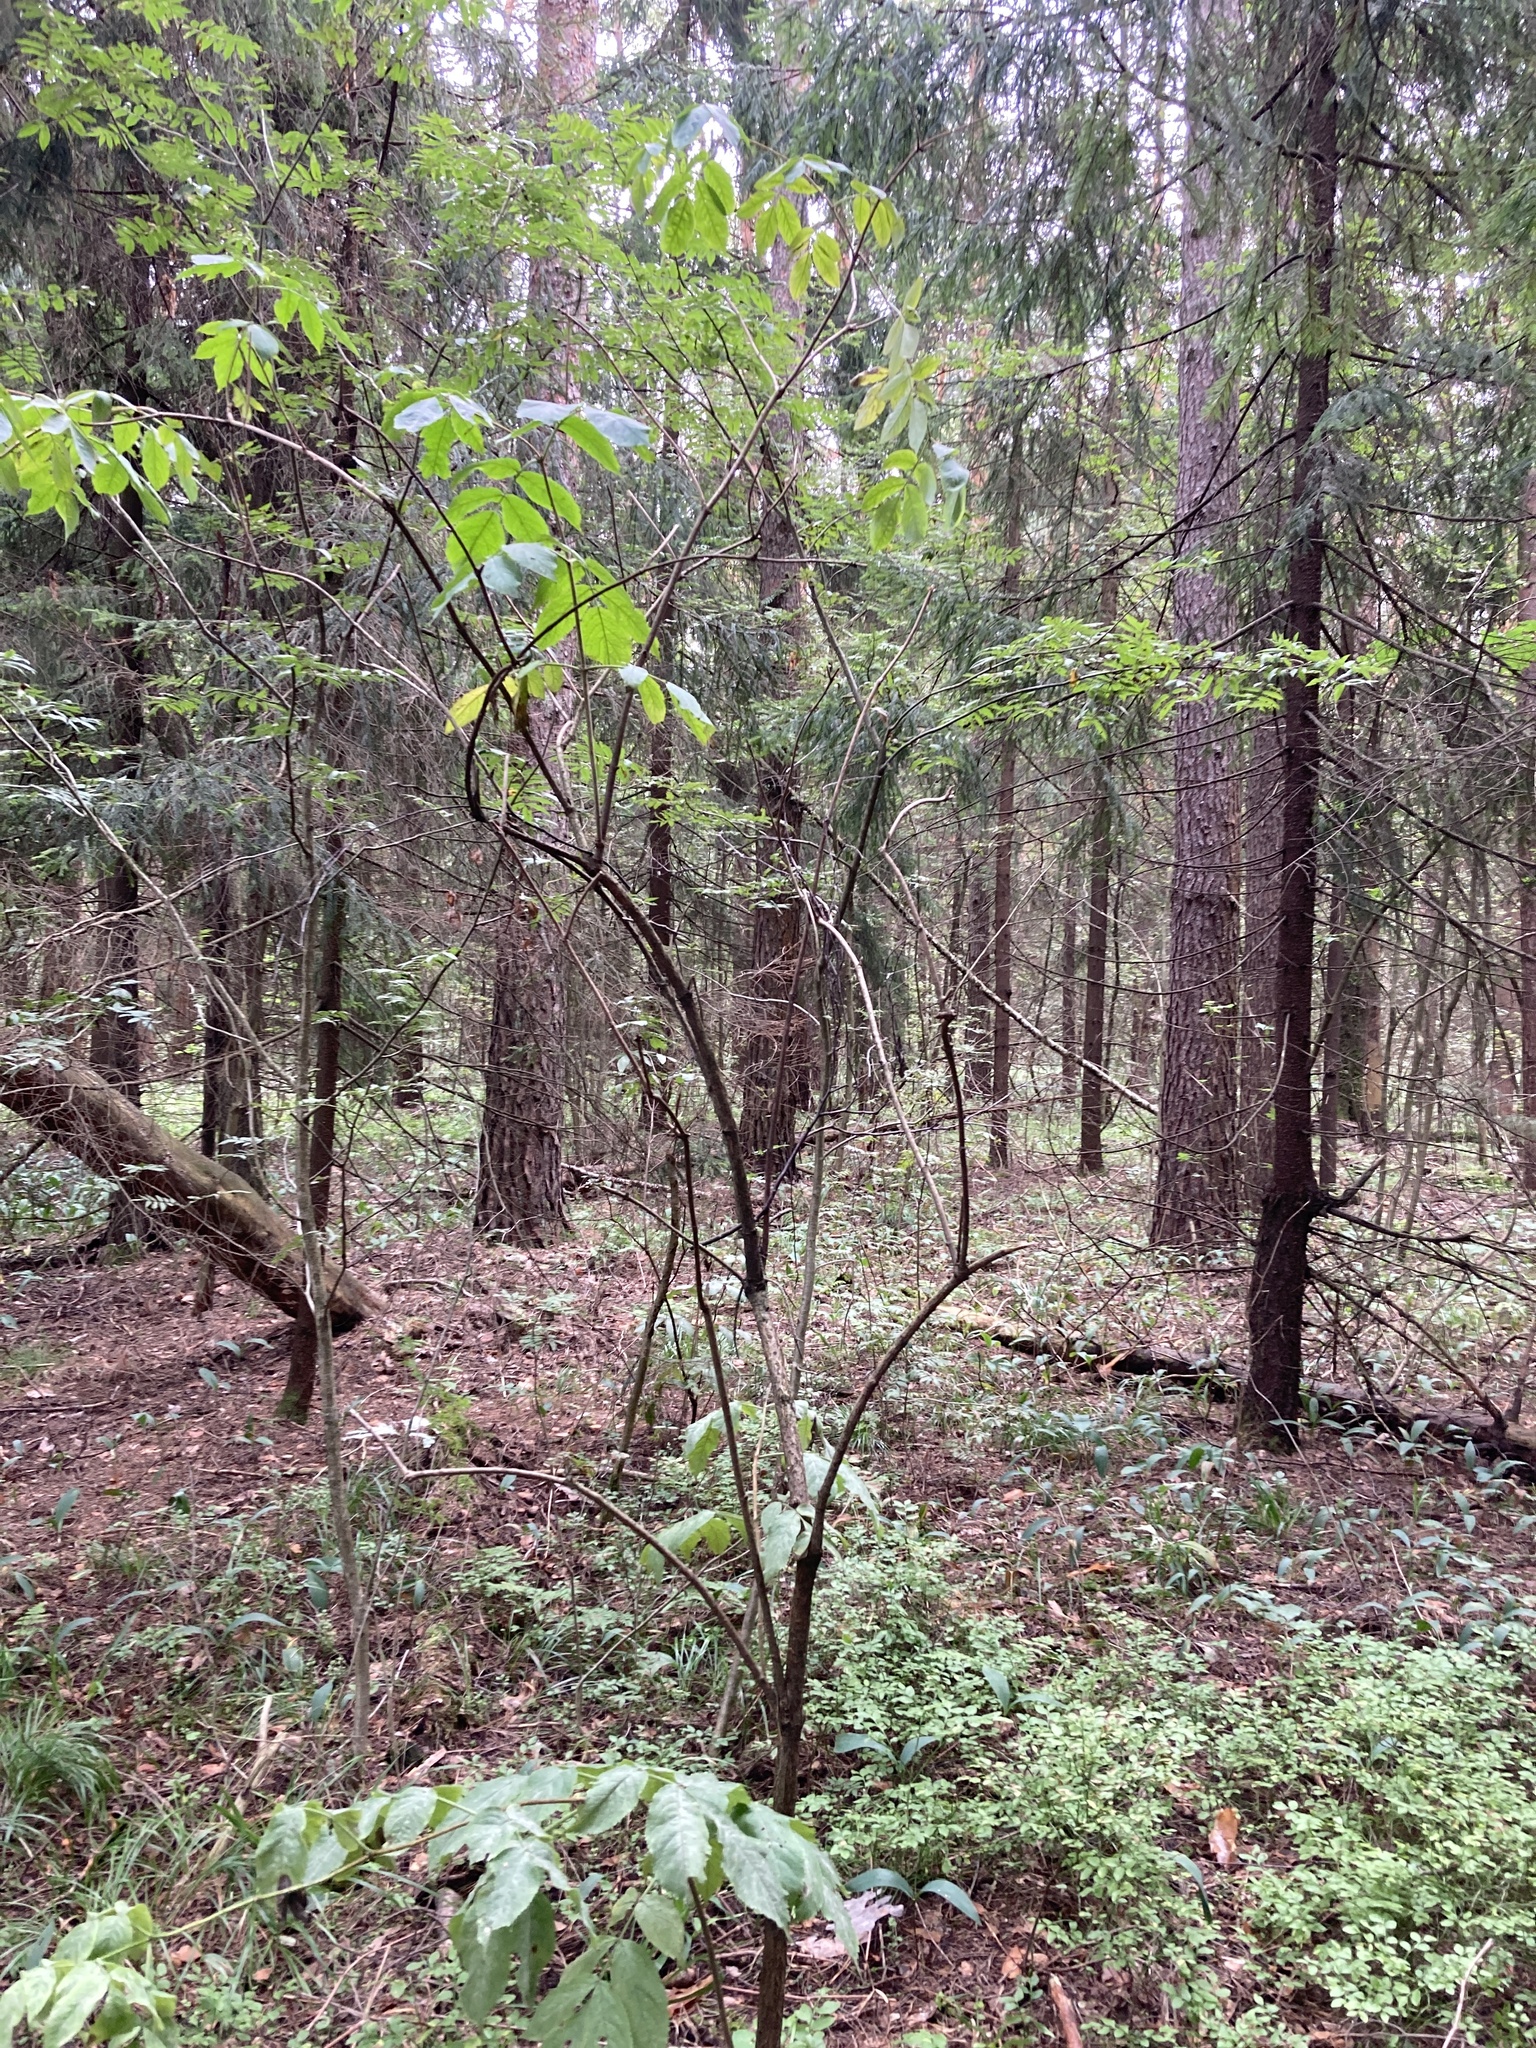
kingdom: Plantae
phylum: Tracheophyta
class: Magnoliopsida
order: Dipsacales
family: Viburnaceae
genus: Sambucus
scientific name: Sambucus racemosa
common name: Red-berried elder
